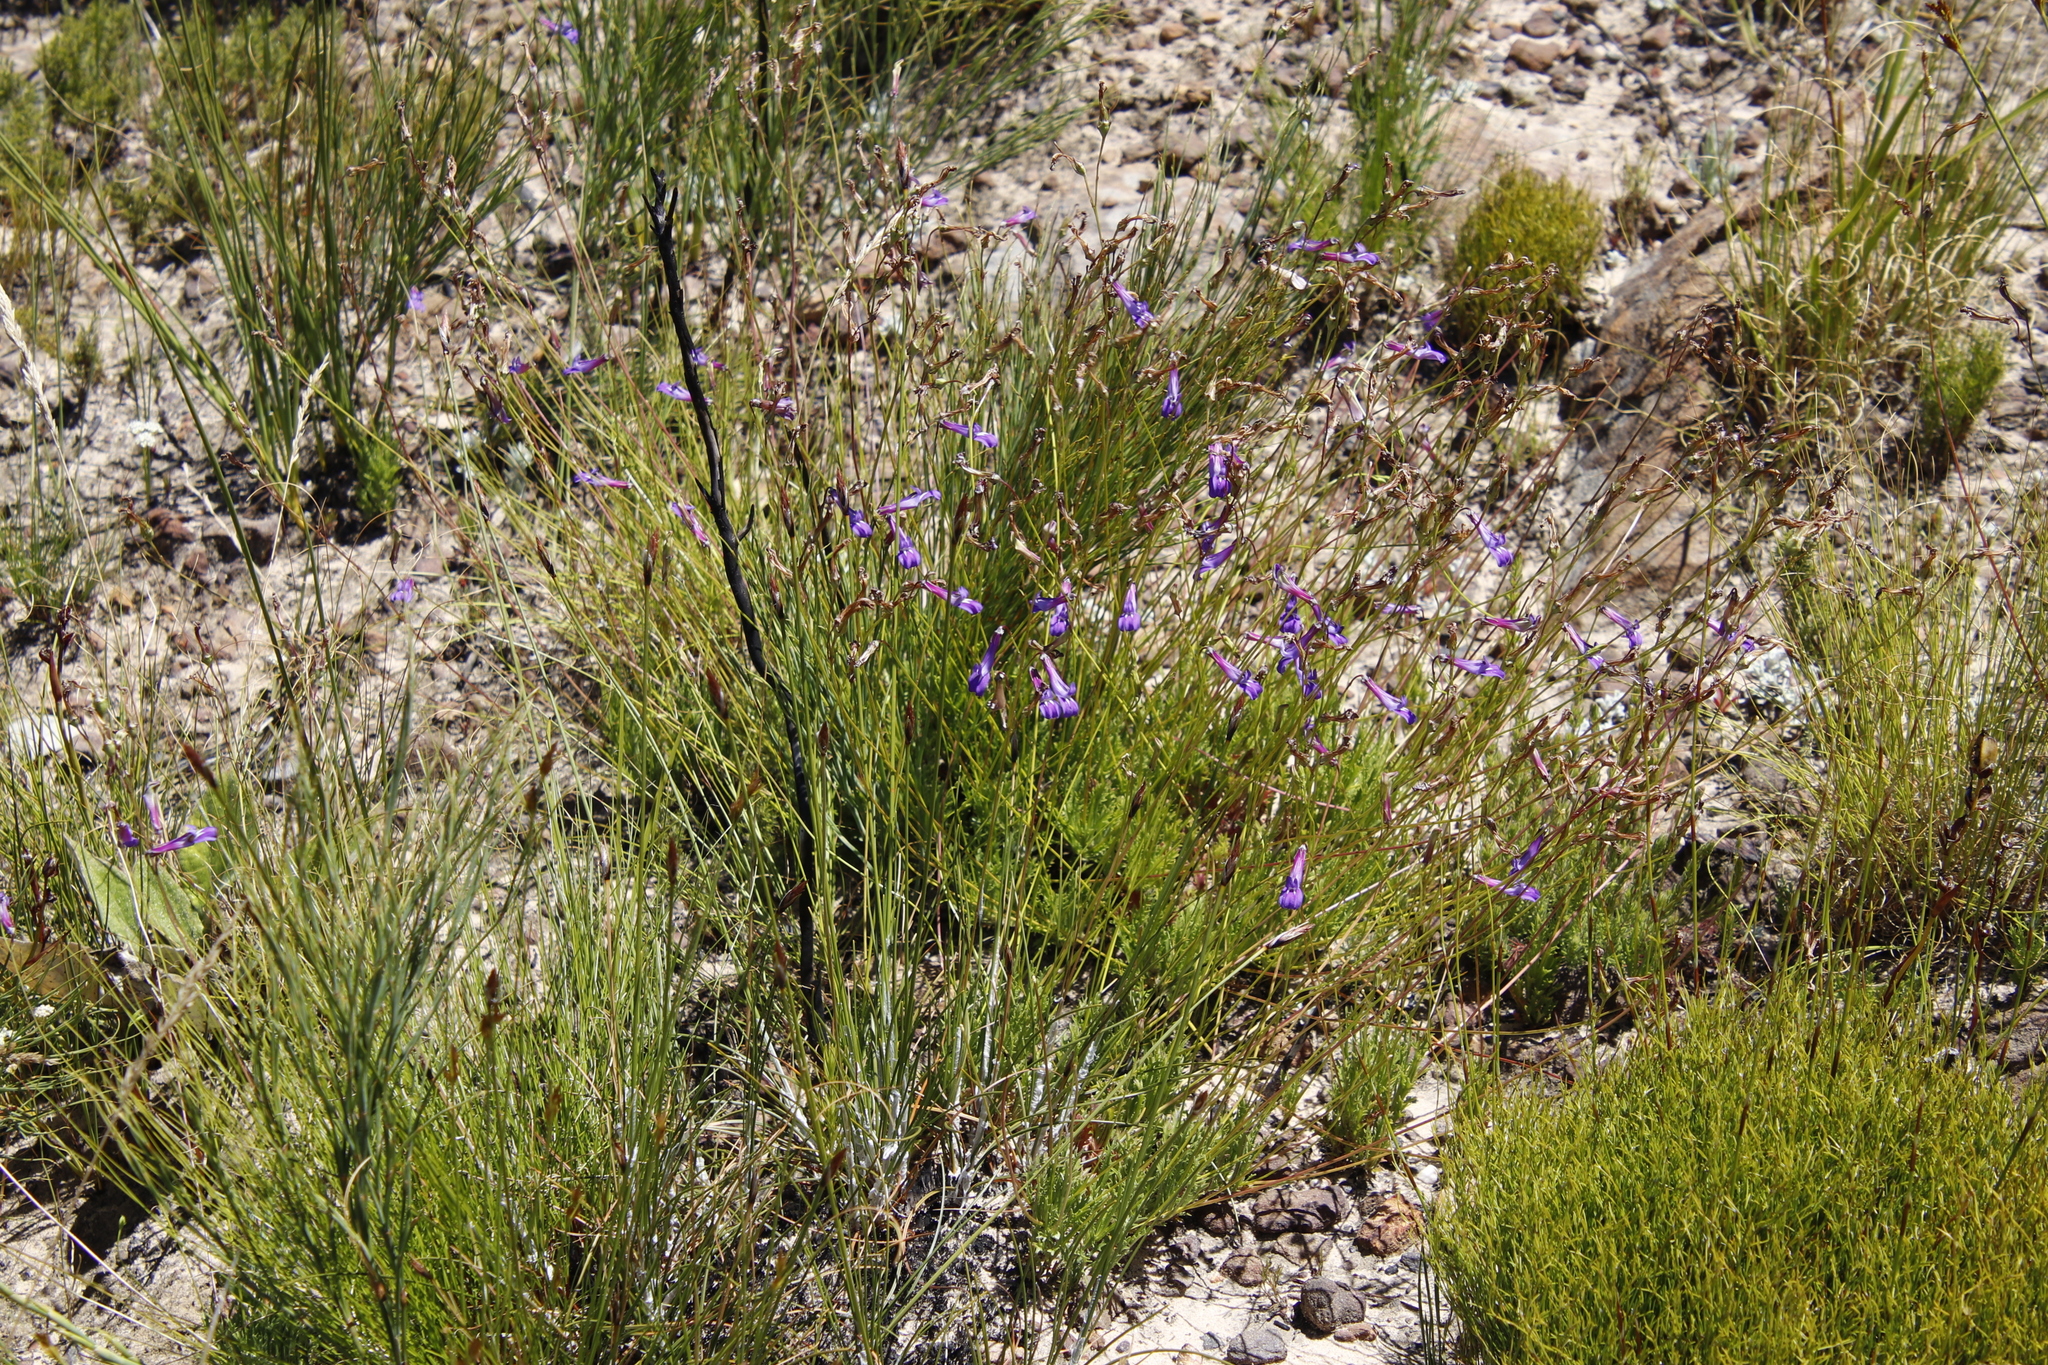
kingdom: Plantae
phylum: Tracheophyta
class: Magnoliopsida
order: Asterales
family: Campanulaceae
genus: Lobelia
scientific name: Lobelia coronopifolia
